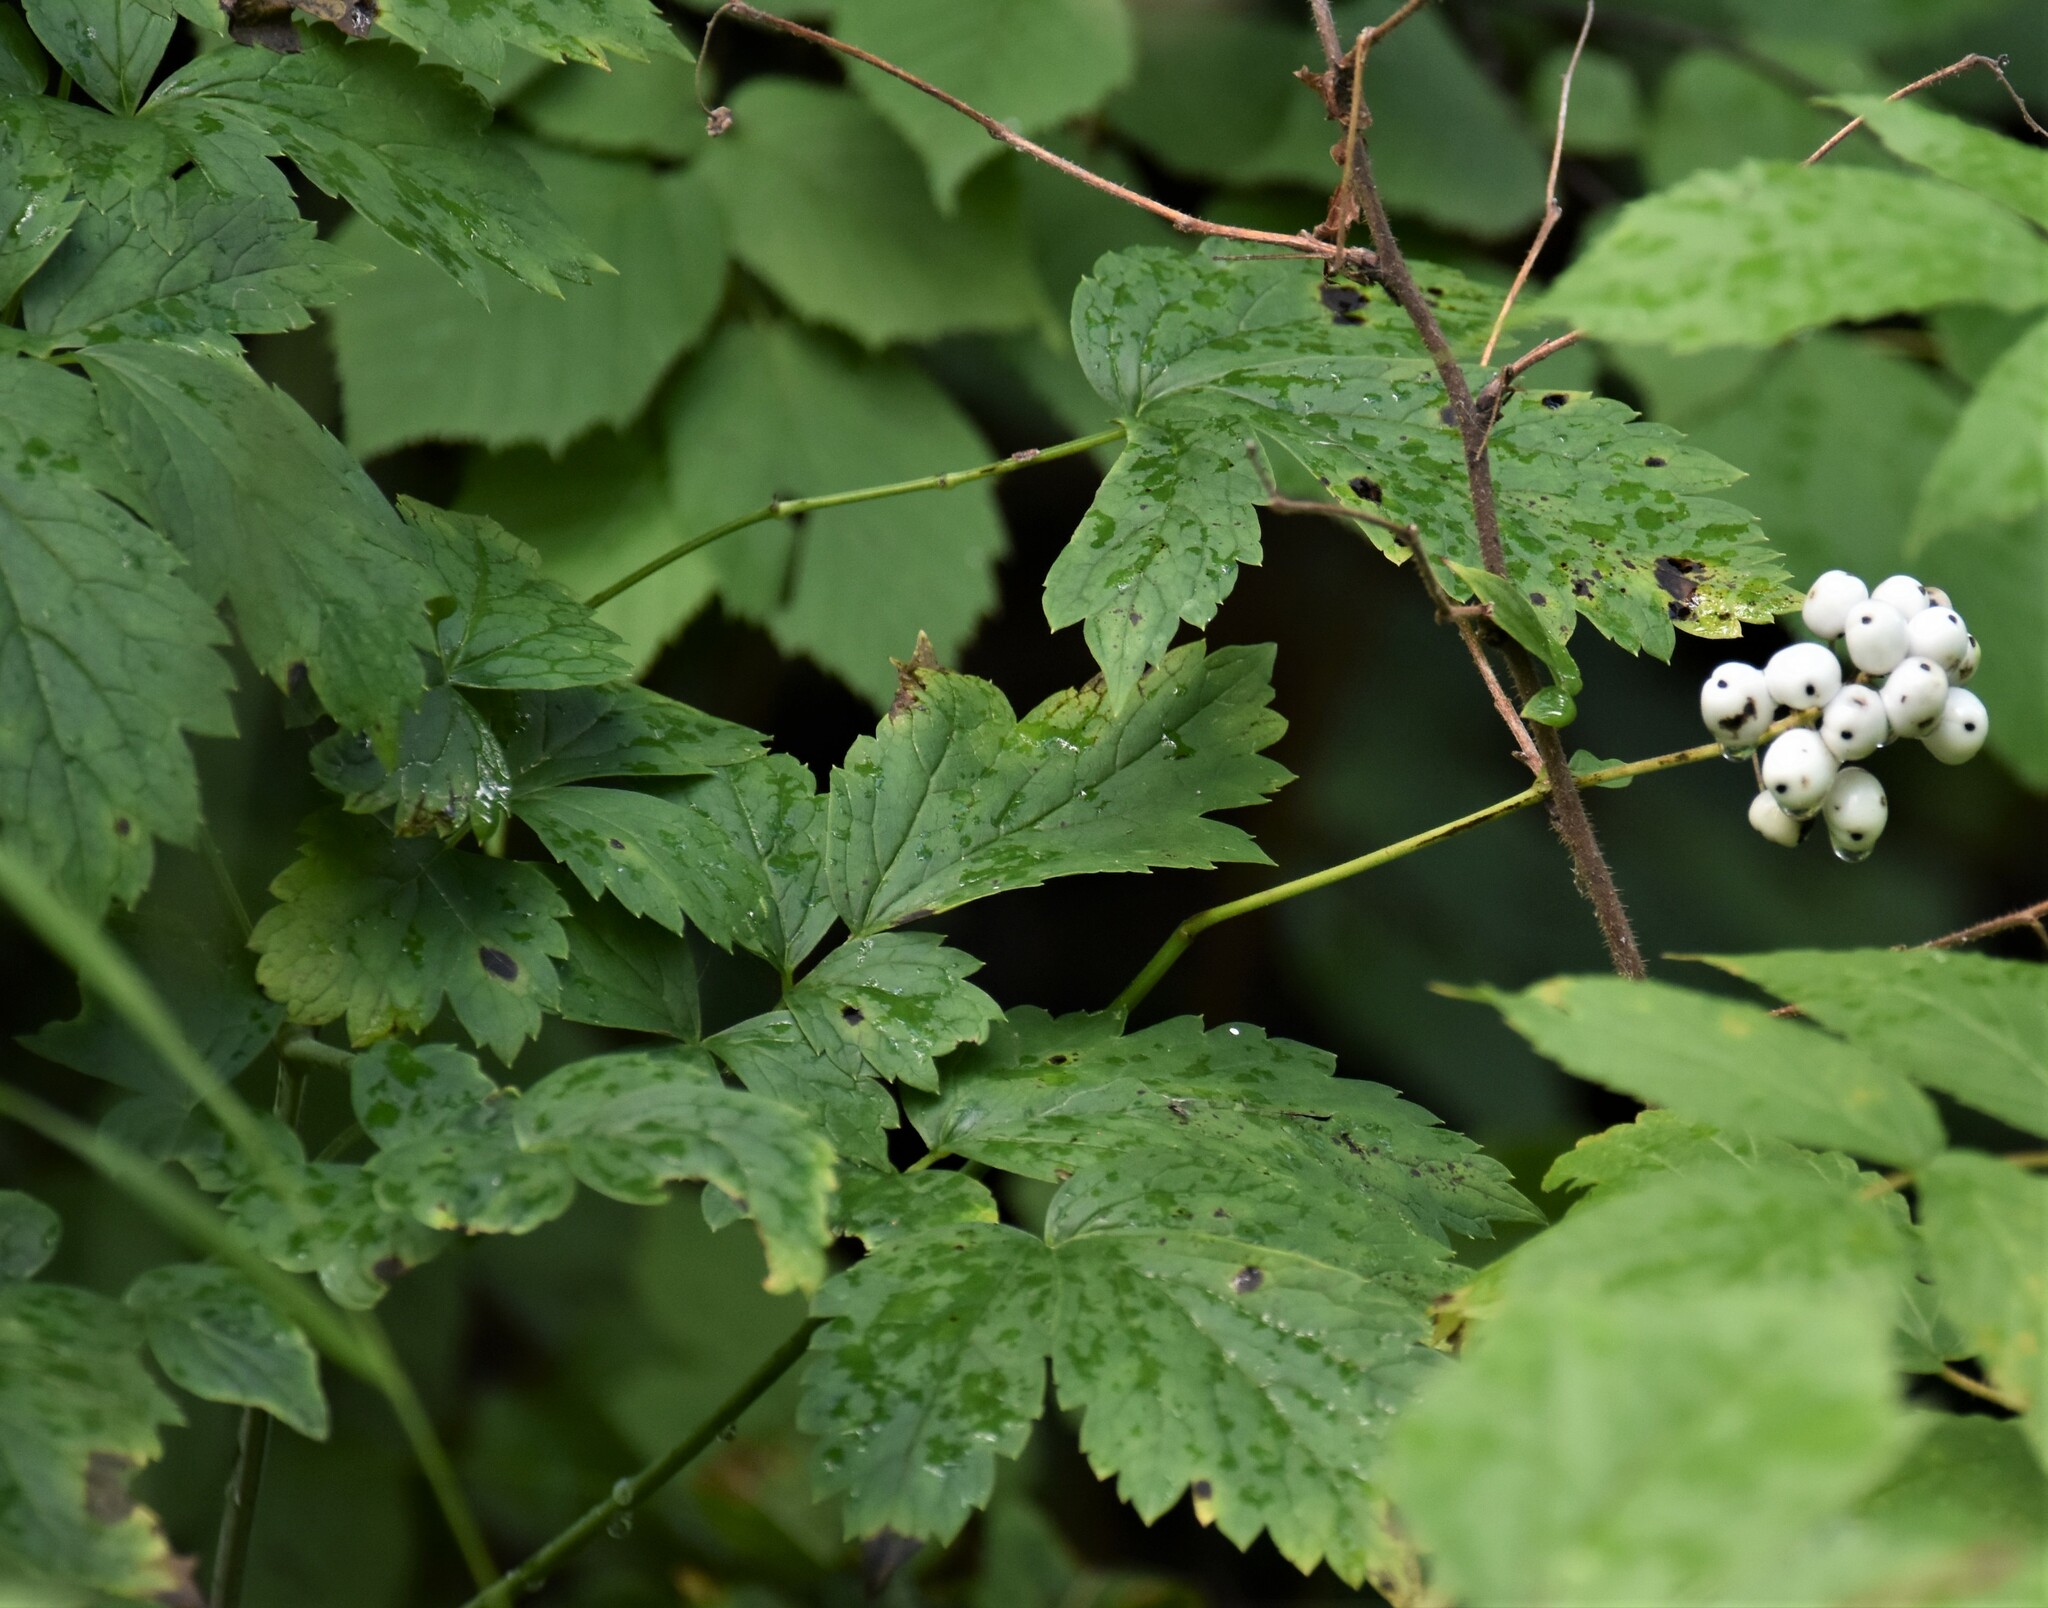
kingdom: Plantae
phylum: Tracheophyta
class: Magnoliopsida
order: Ranunculales
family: Ranunculaceae
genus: Actaea
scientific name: Actaea rubra
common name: Red baneberry
